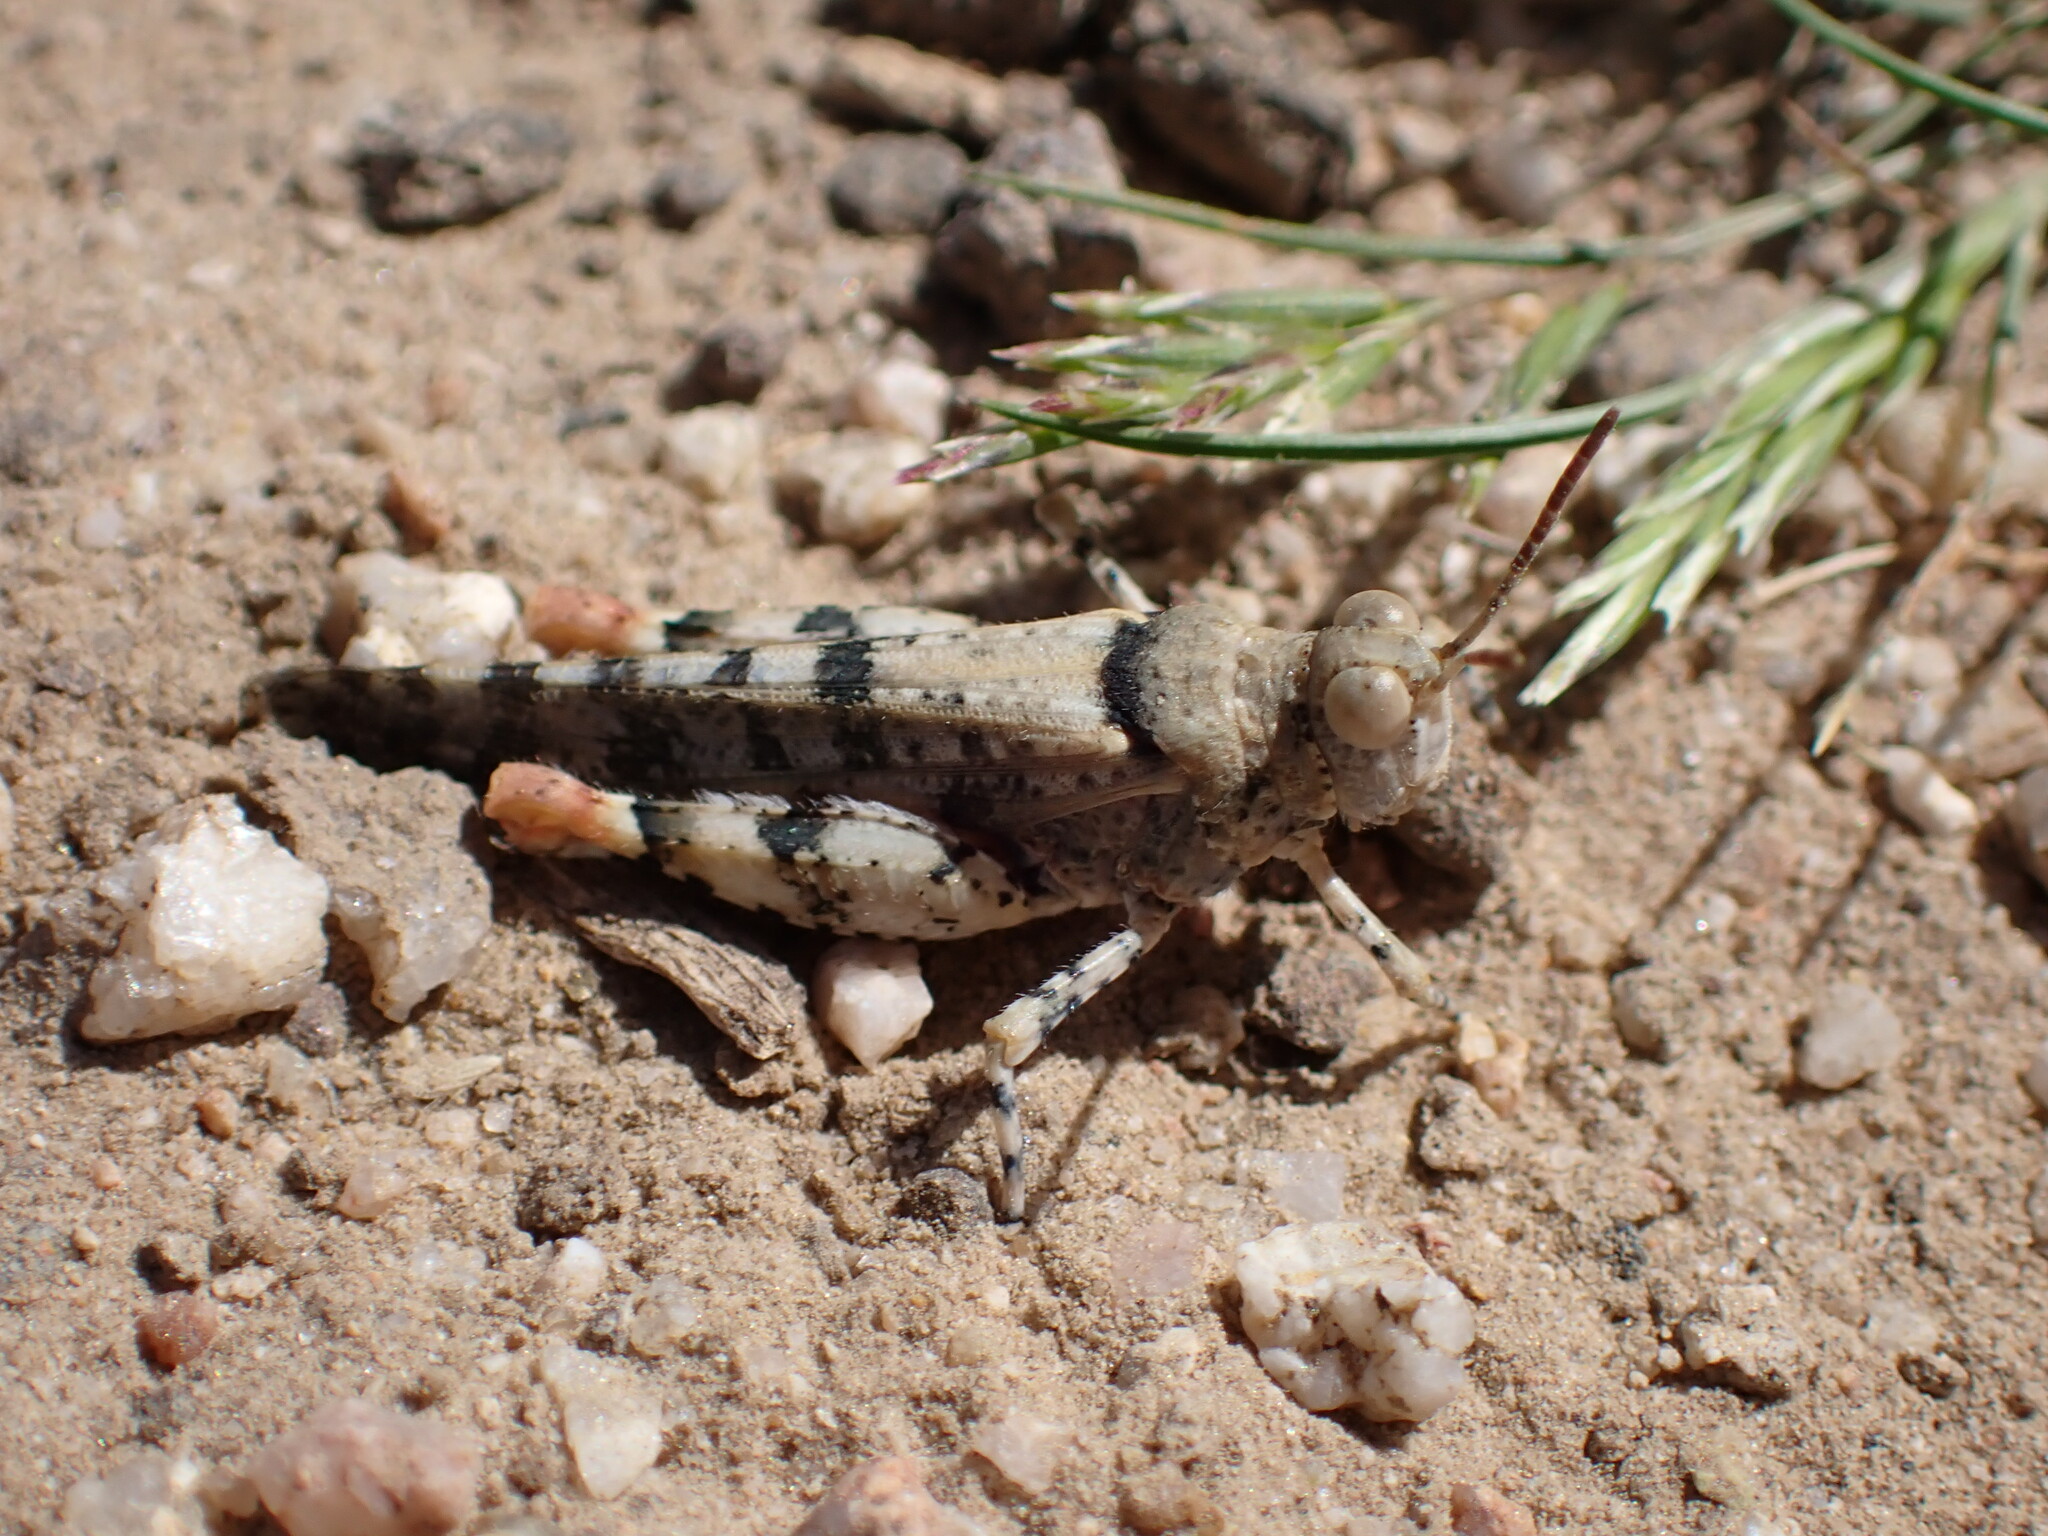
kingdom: Animalia
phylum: Arthropoda
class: Insecta
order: Orthoptera
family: Acrididae
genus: Cibolacris
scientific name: Cibolacris parviceps
